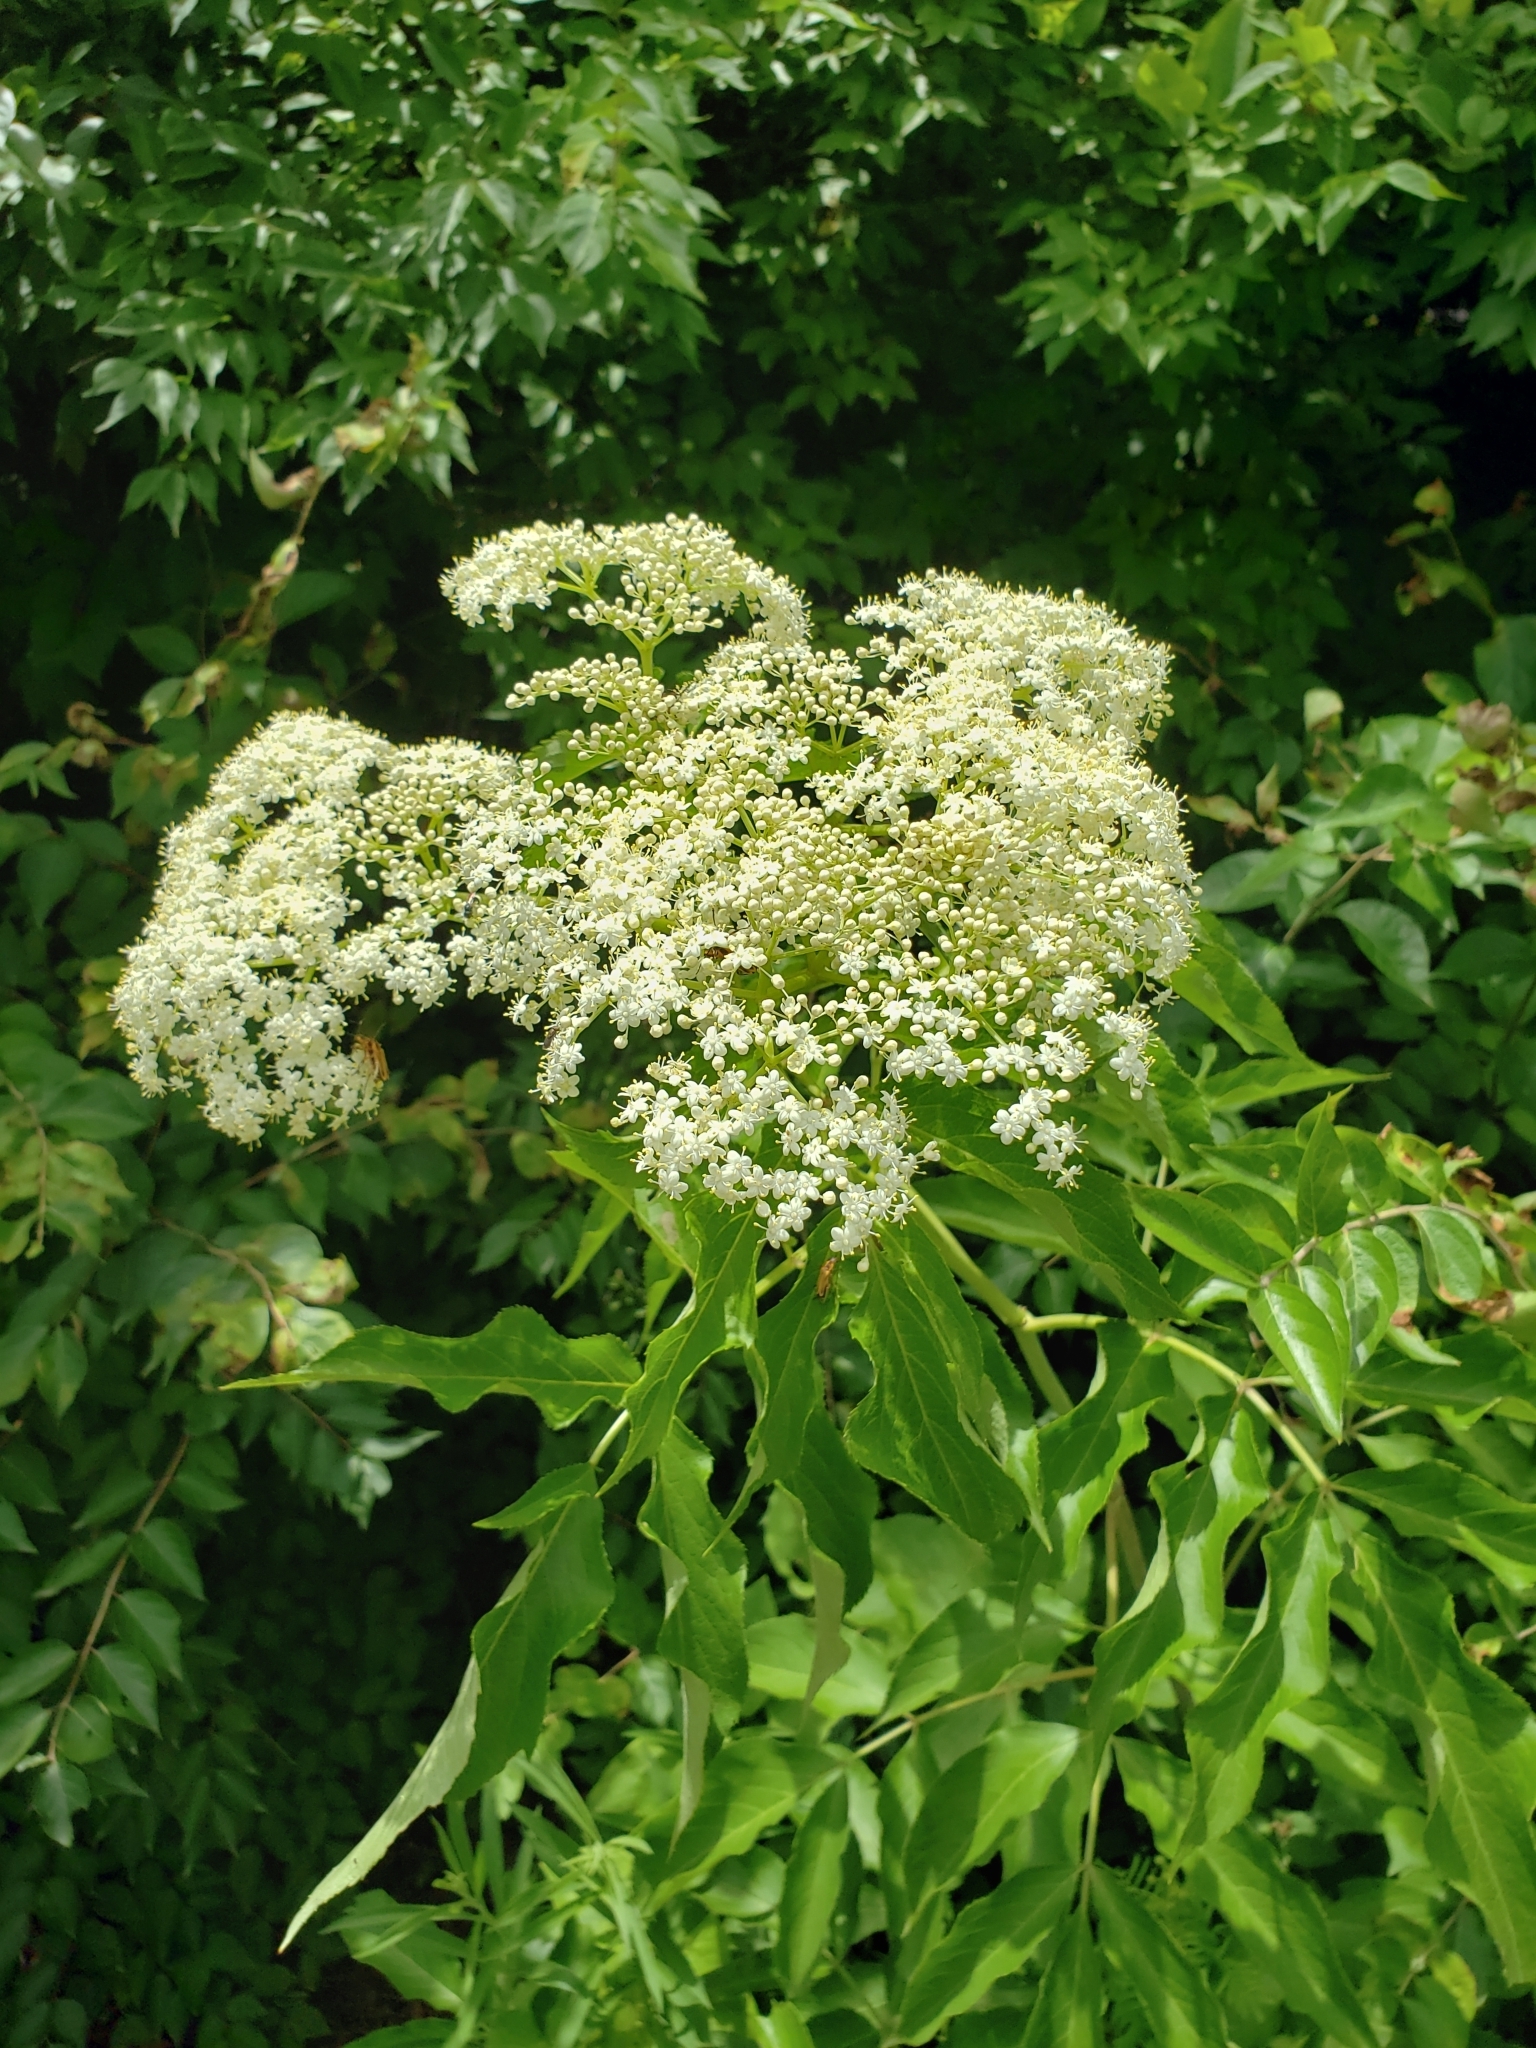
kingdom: Plantae
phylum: Tracheophyta
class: Magnoliopsida
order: Dipsacales
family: Viburnaceae
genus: Sambucus
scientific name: Sambucus canadensis
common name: American elder
